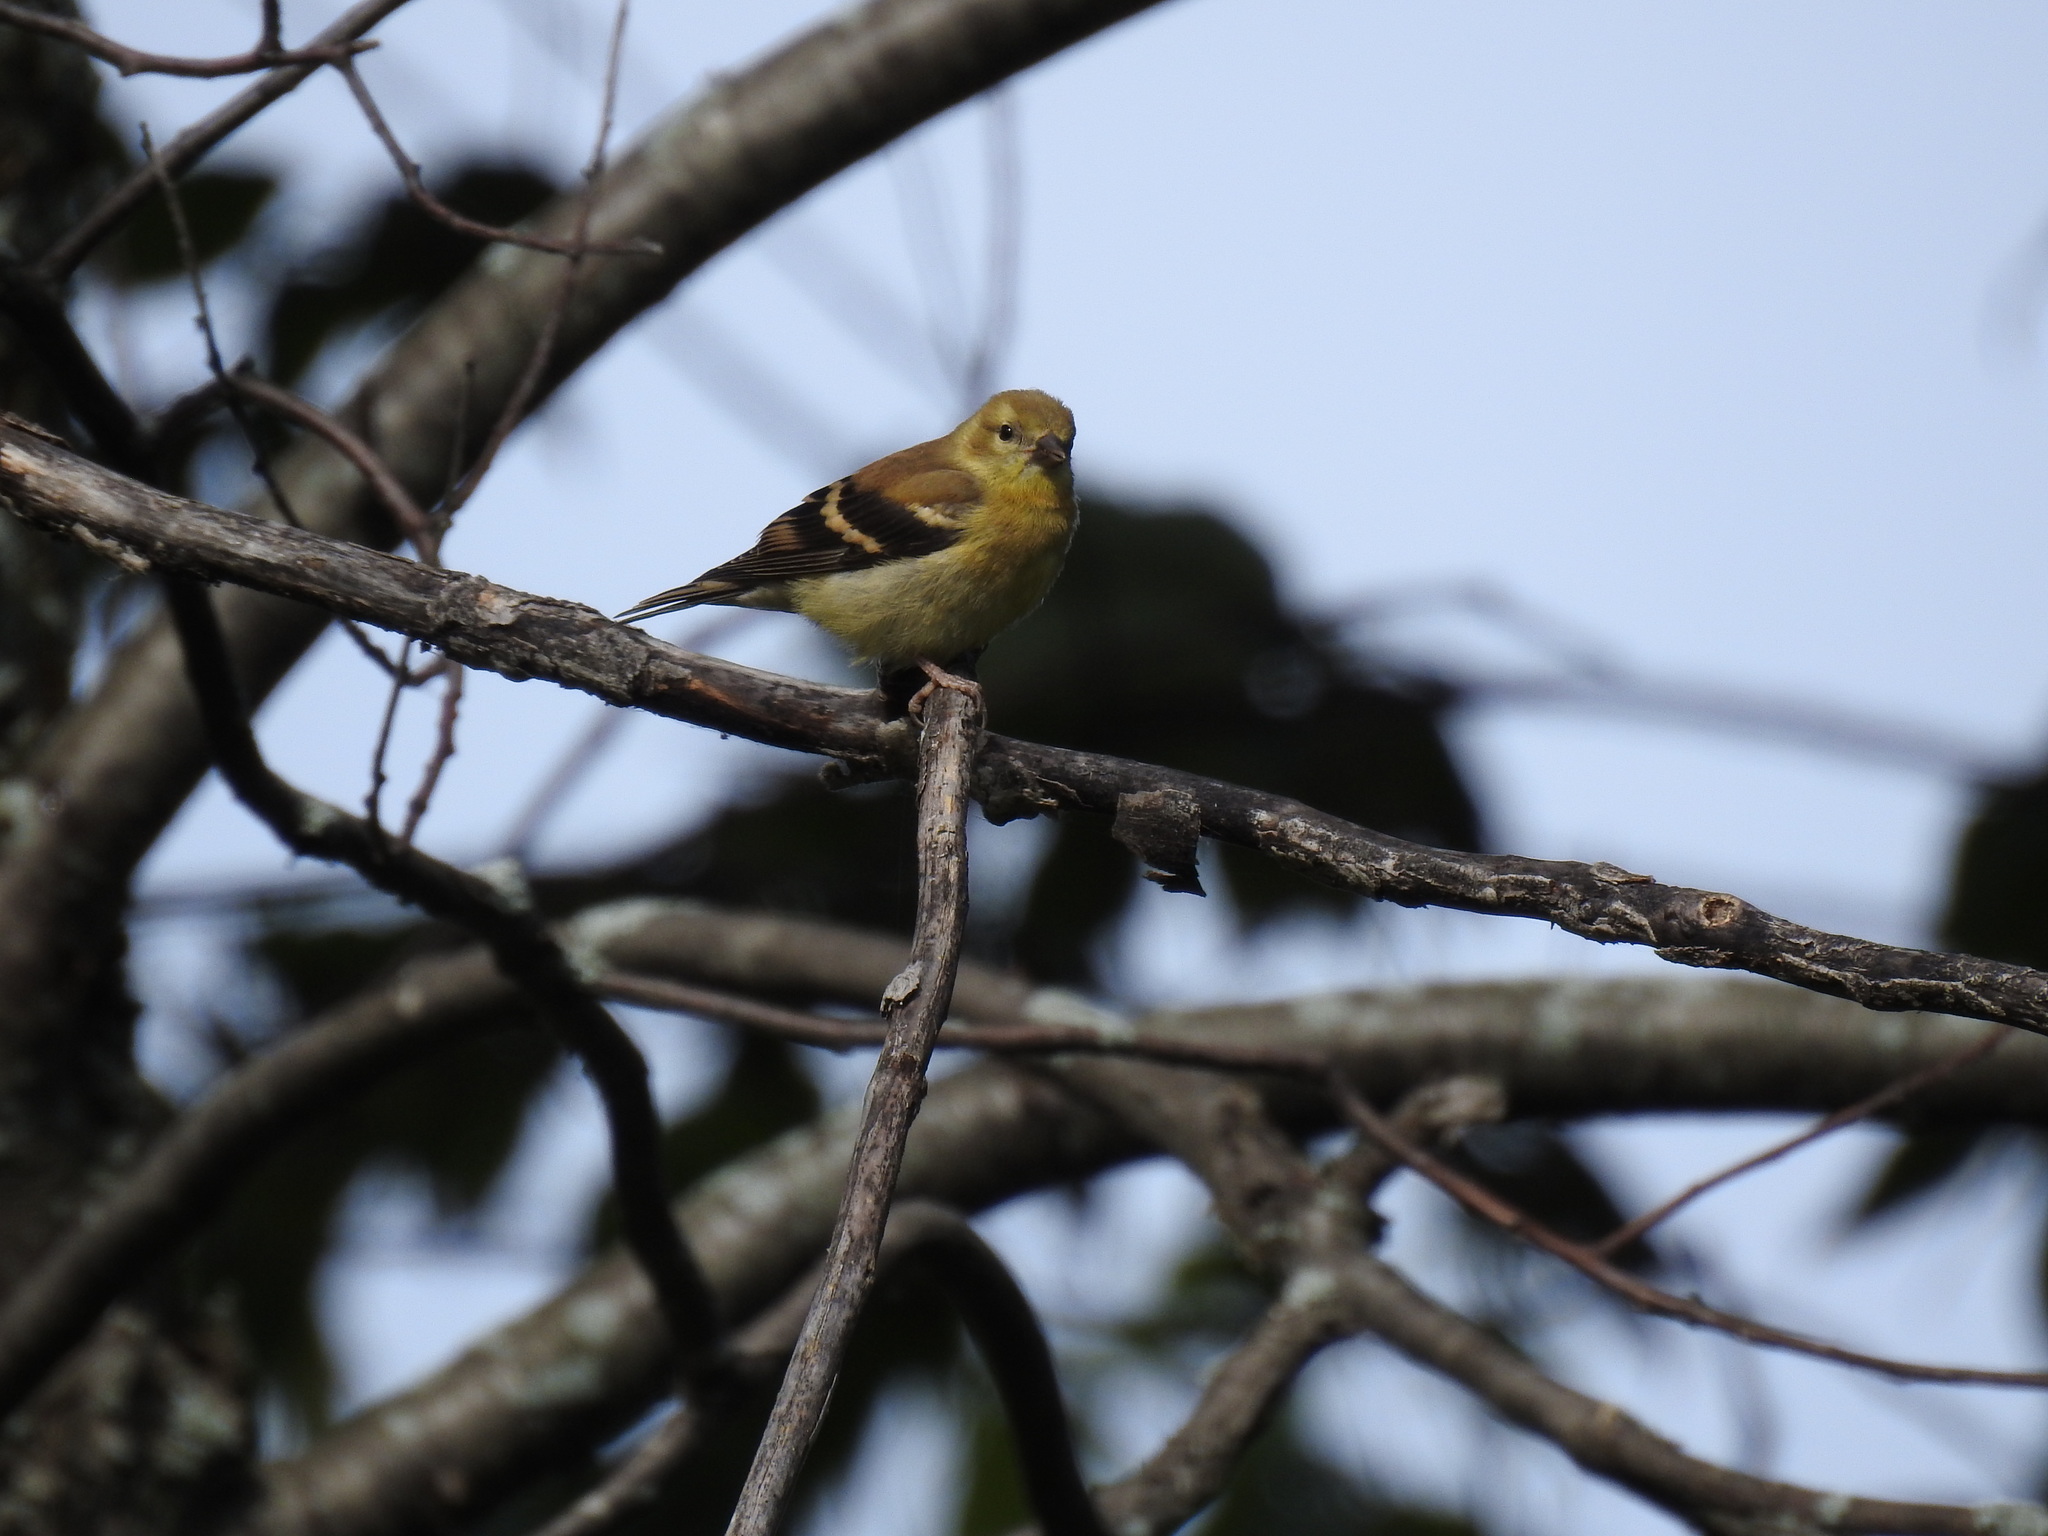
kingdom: Animalia
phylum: Chordata
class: Aves
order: Passeriformes
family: Fringillidae
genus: Spinus
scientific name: Spinus tristis
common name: American goldfinch
